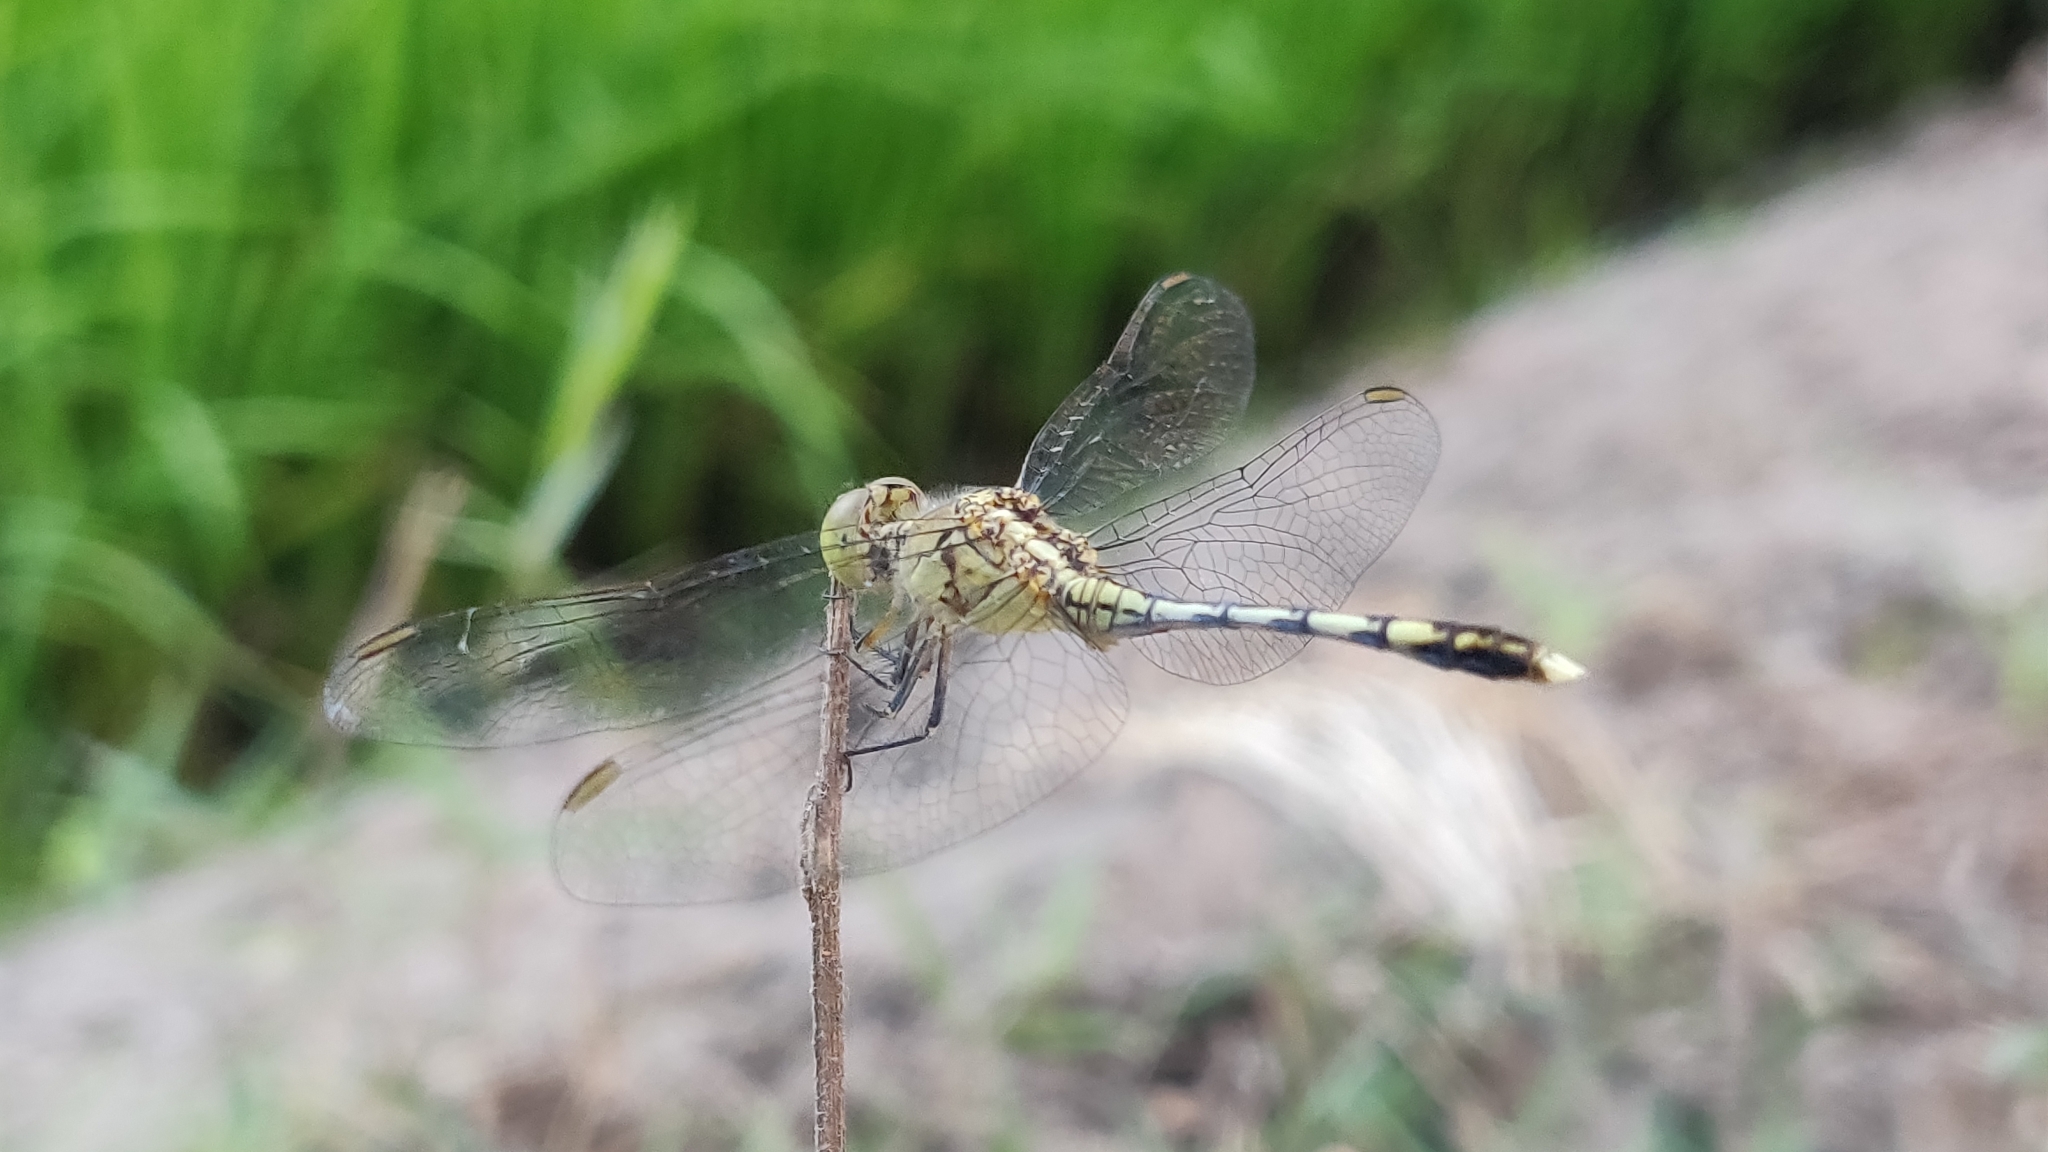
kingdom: Animalia
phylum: Arthropoda
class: Insecta
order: Odonata
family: Libellulidae
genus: Diplacodes
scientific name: Diplacodes trivialis
